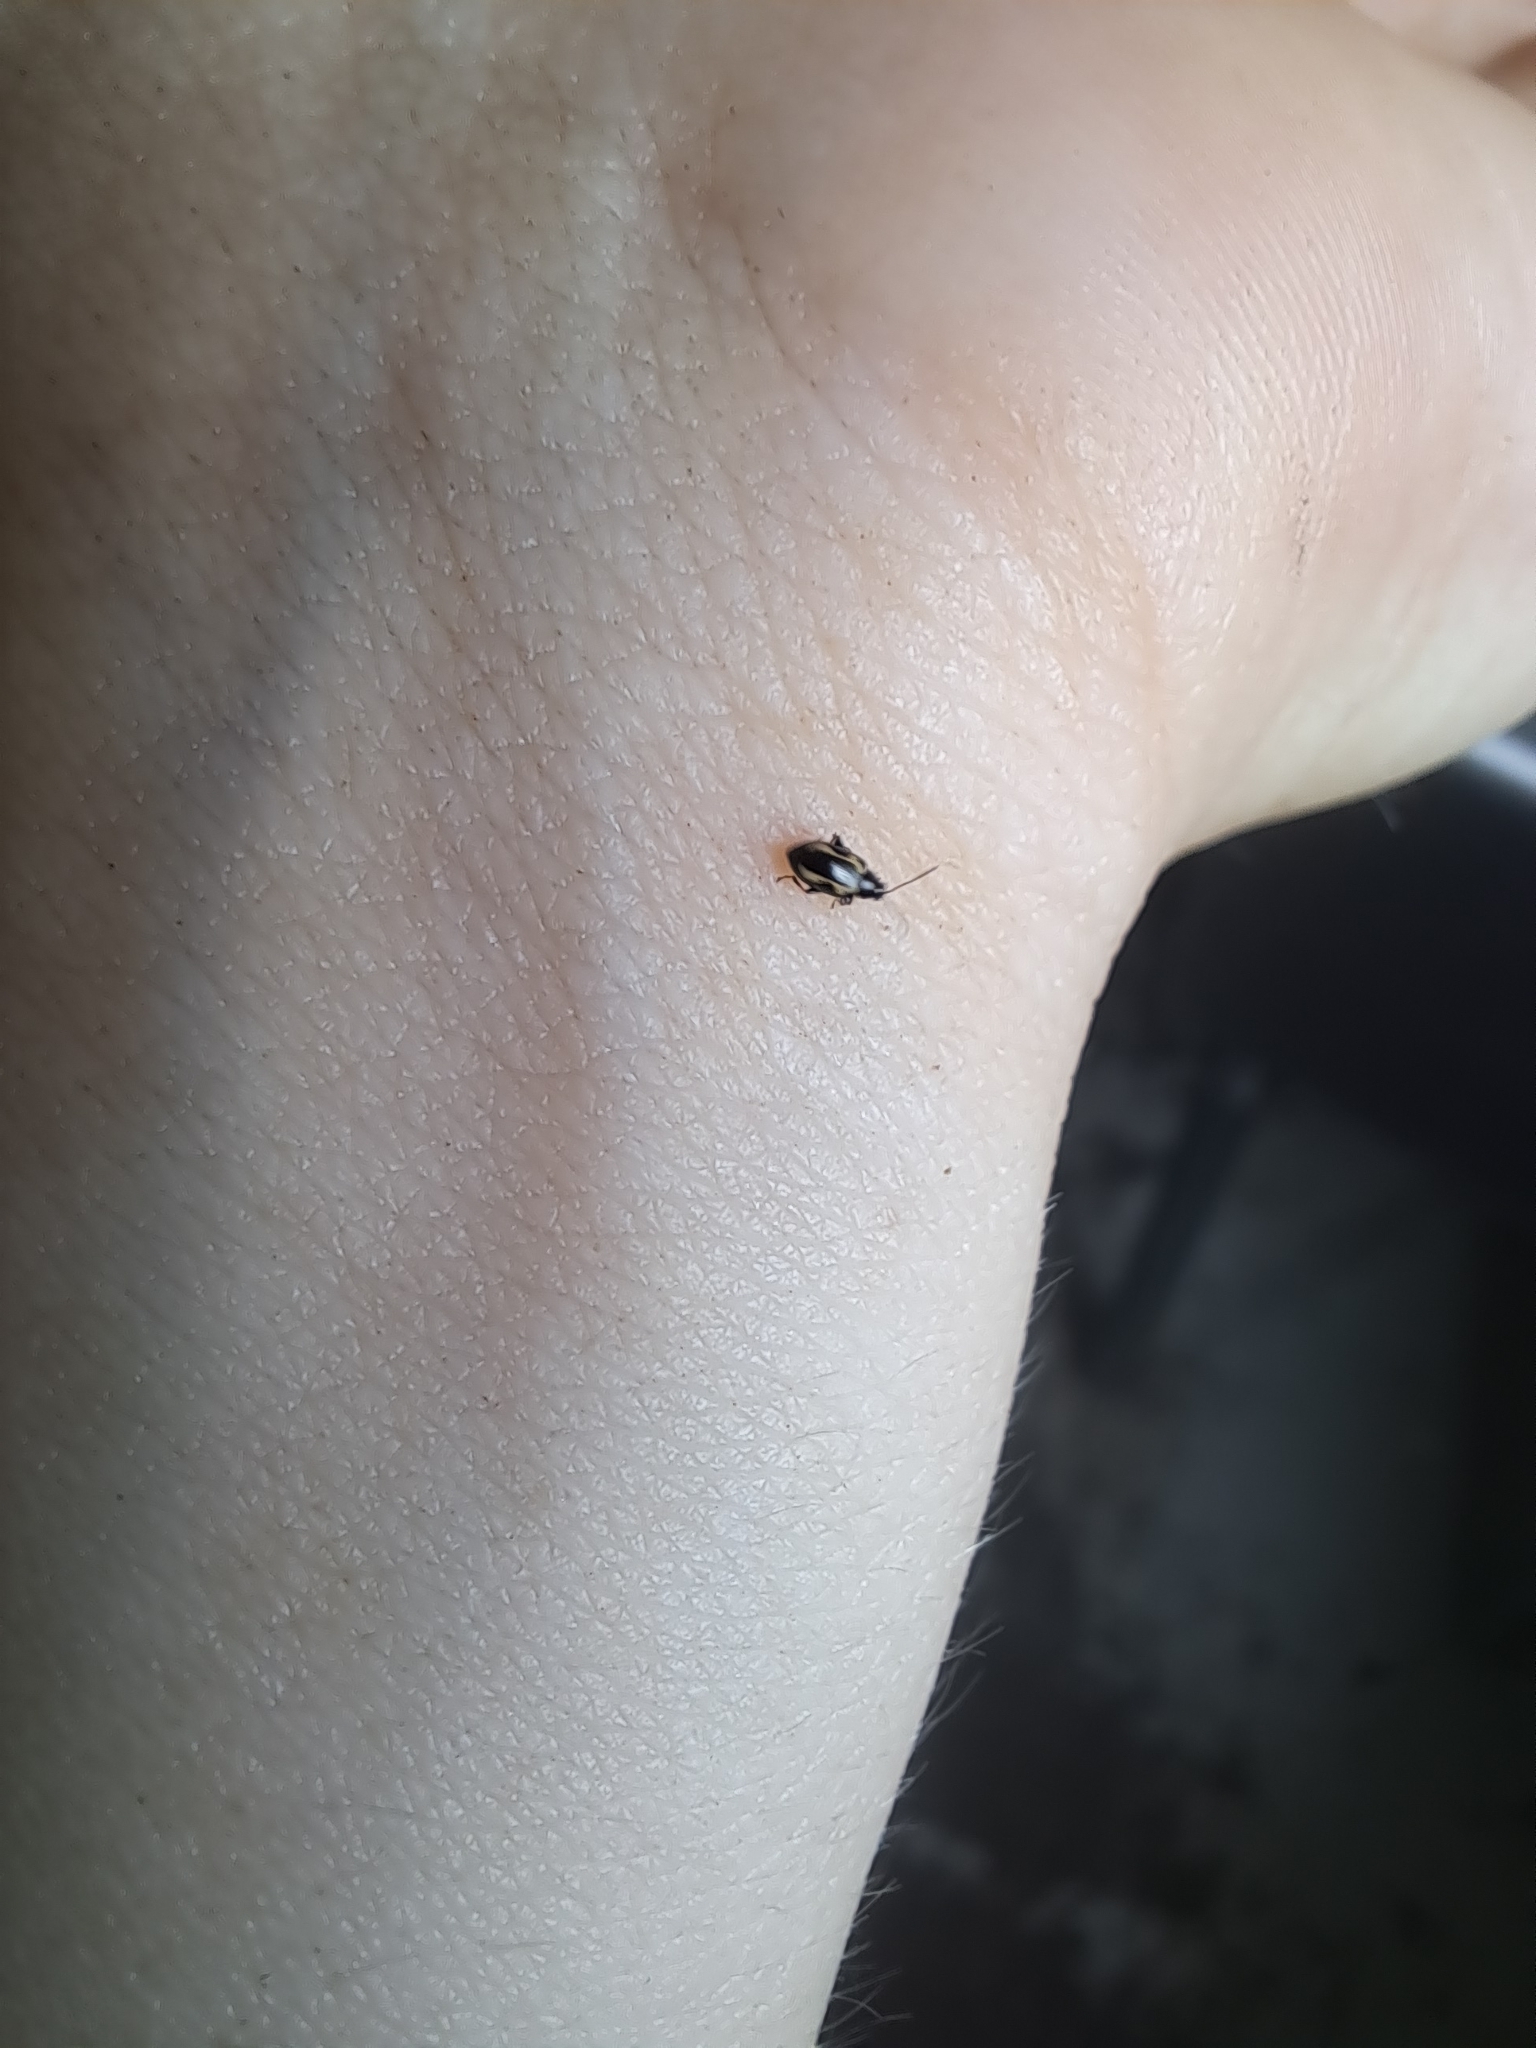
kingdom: Animalia
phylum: Arthropoda
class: Insecta
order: Coleoptera
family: Chrysomelidae
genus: Phyllotreta
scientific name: Phyllotreta striolata
